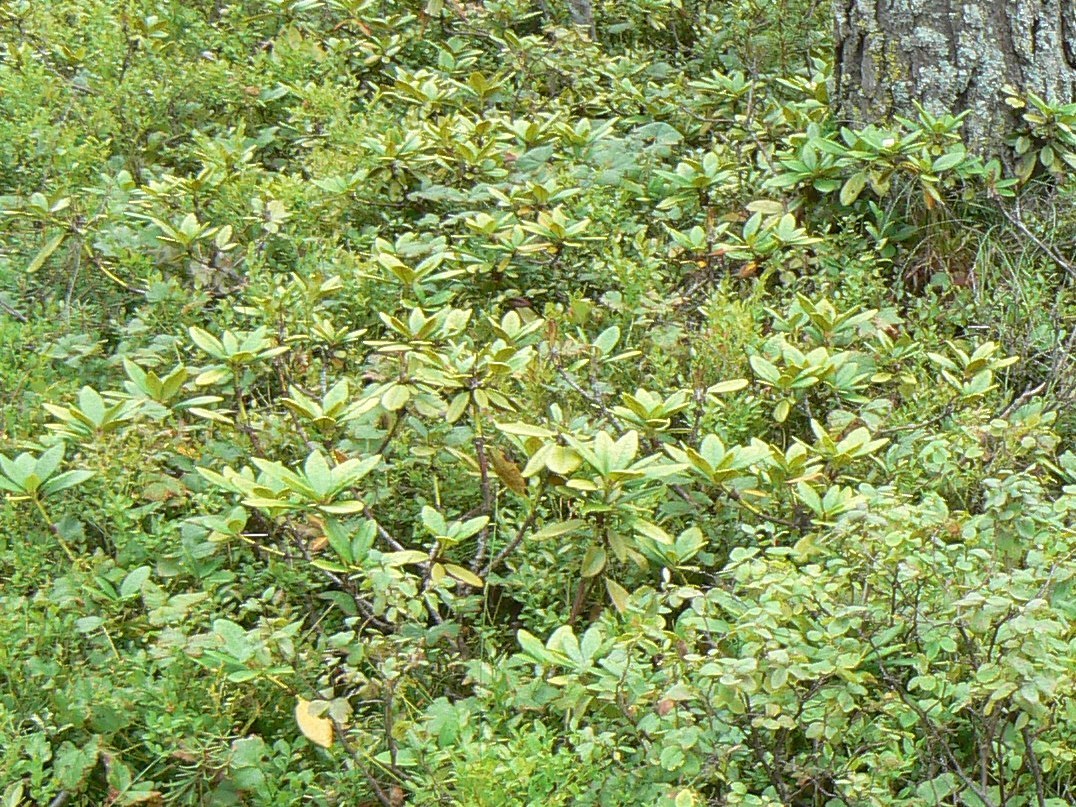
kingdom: Plantae
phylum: Tracheophyta
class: Magnoliopsida
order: Ericales
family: Ericaceae
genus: Rhododendron
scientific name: Rhododendron aureum
